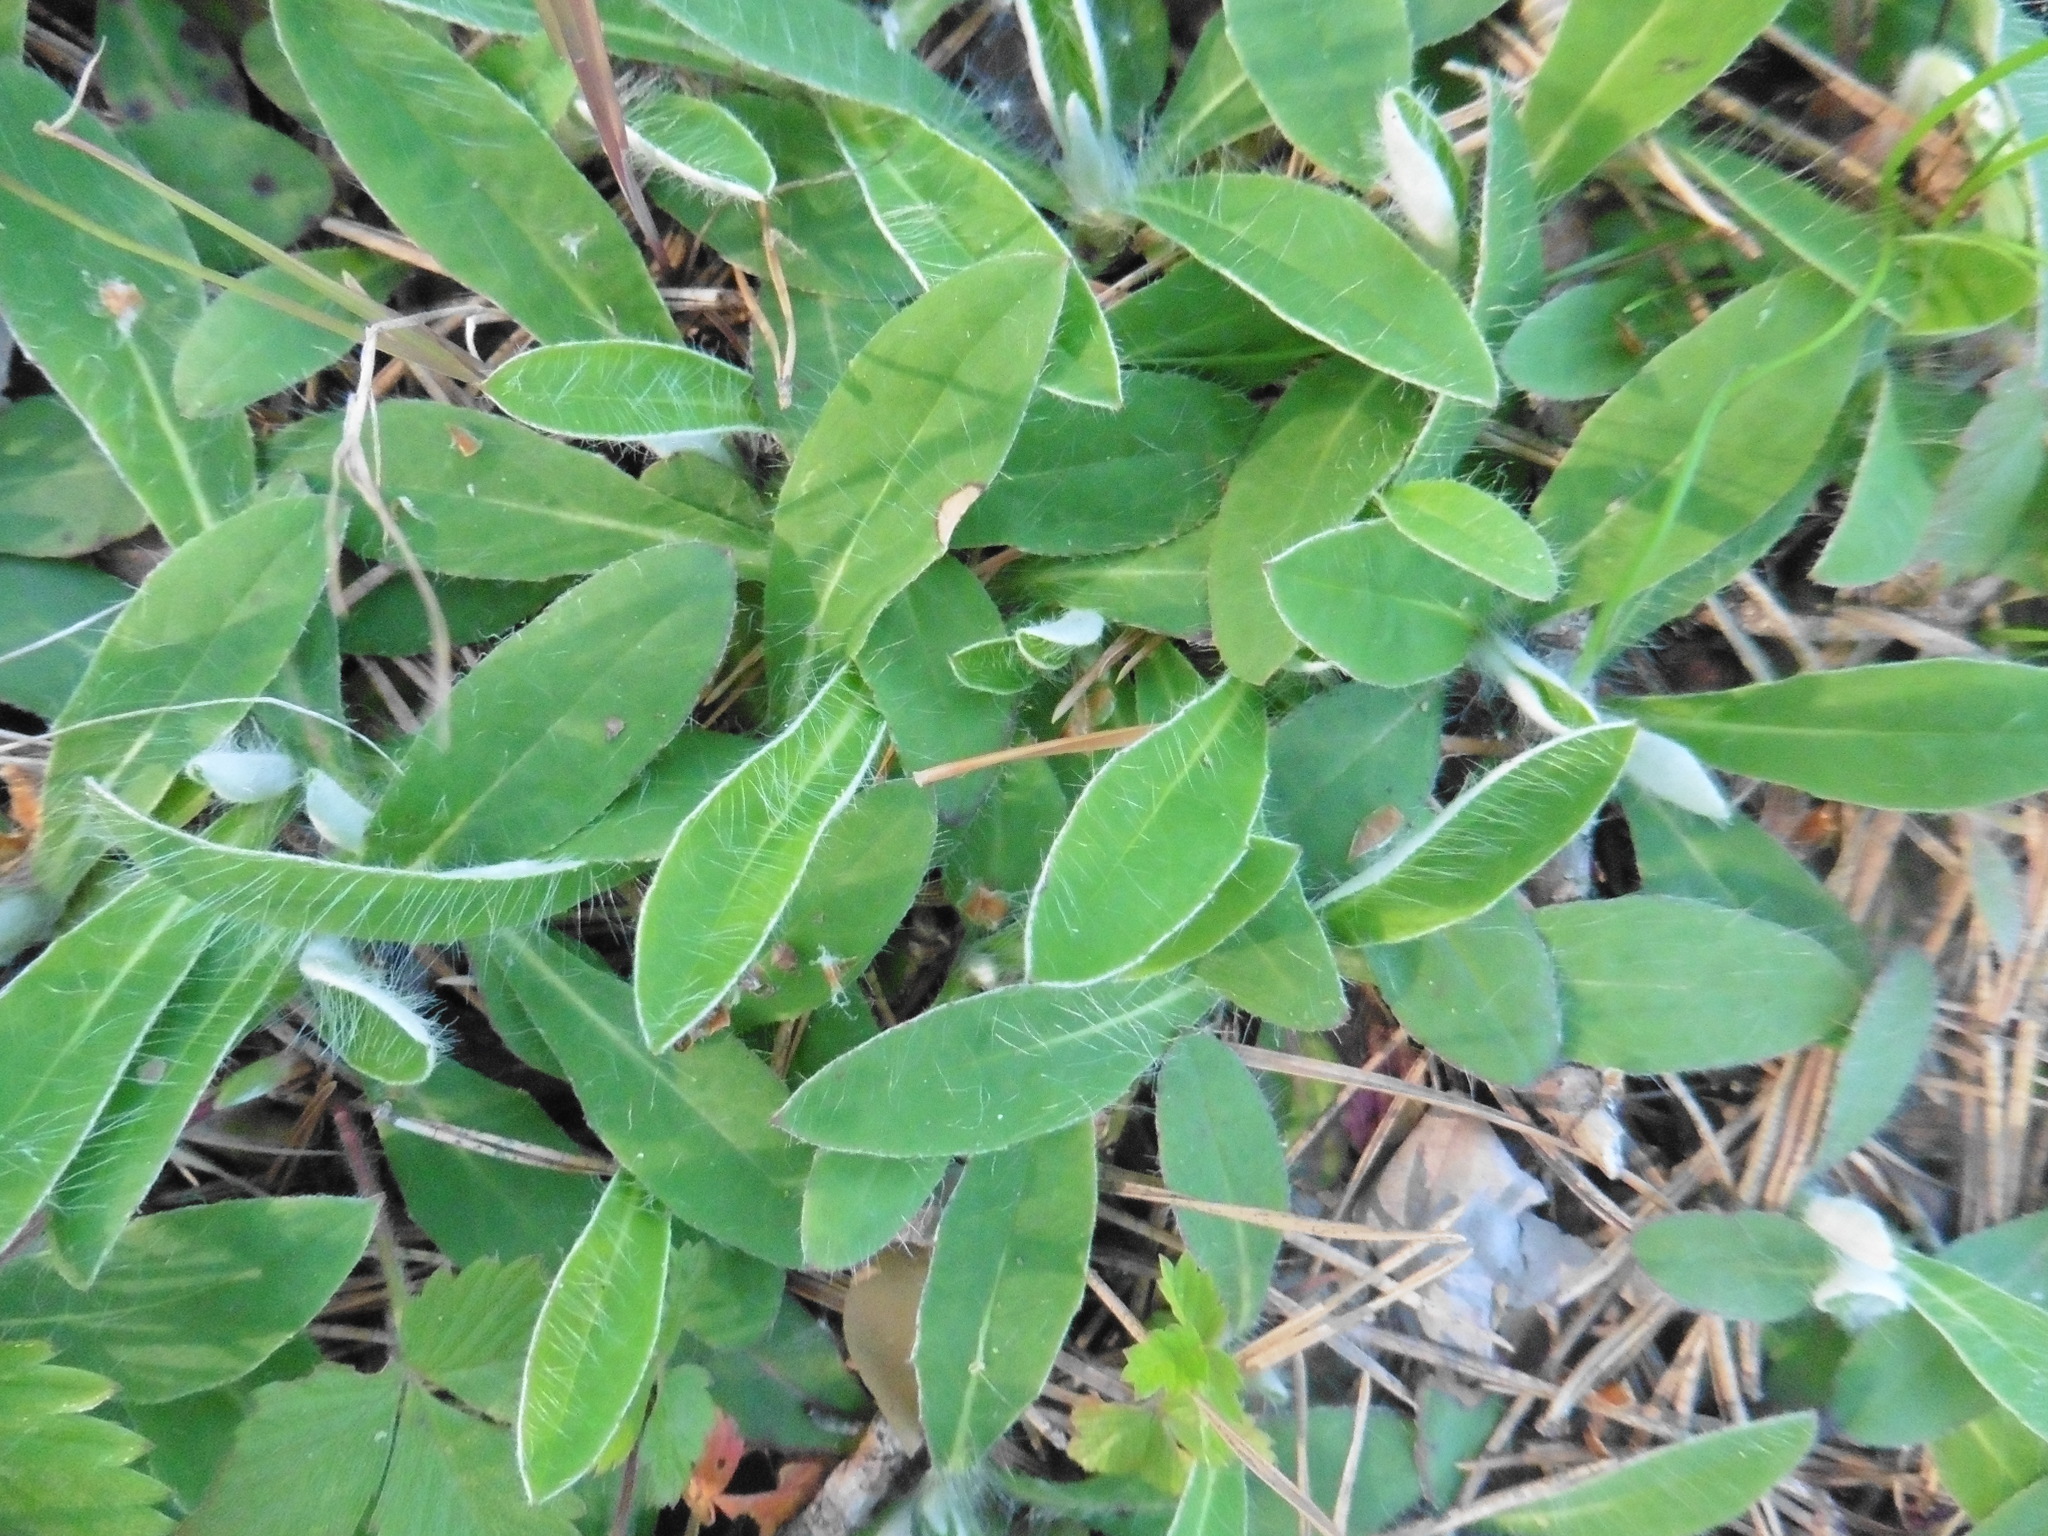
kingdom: Plantae
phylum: Tracheophyta
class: Magnoliopsida
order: Asterales
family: Asteraceae
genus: Pilosella
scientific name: Pilosella officinarum
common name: Mouse-ear hawkweed
